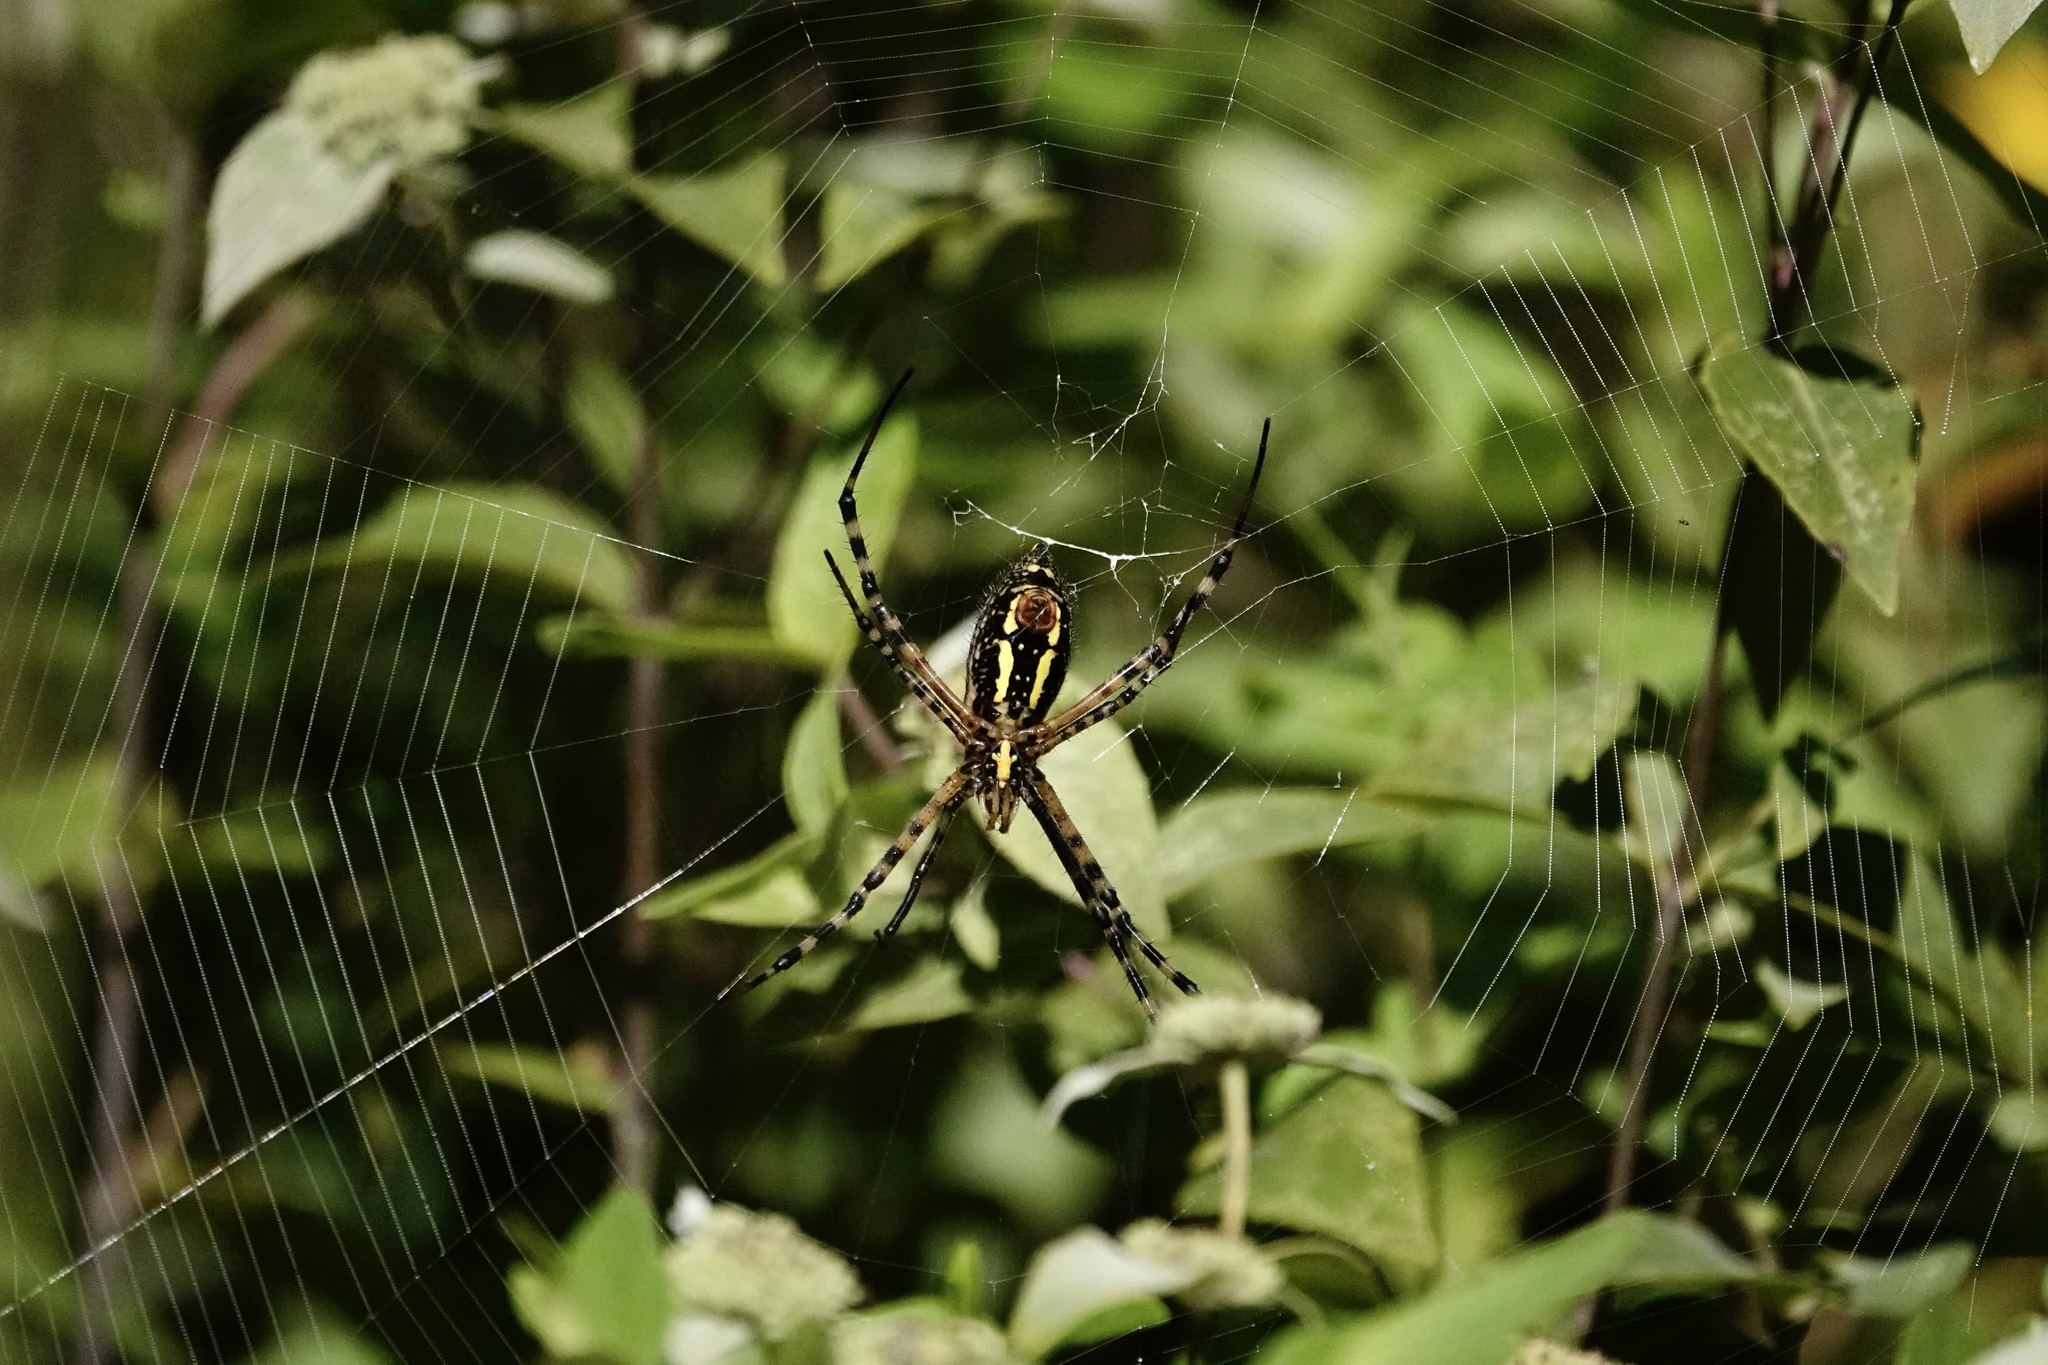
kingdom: Animalia
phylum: Arthropoda
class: Arachnida
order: Araneae
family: Araneidae
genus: Argiope
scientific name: Argiope trifasciata
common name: Banded garden spider
